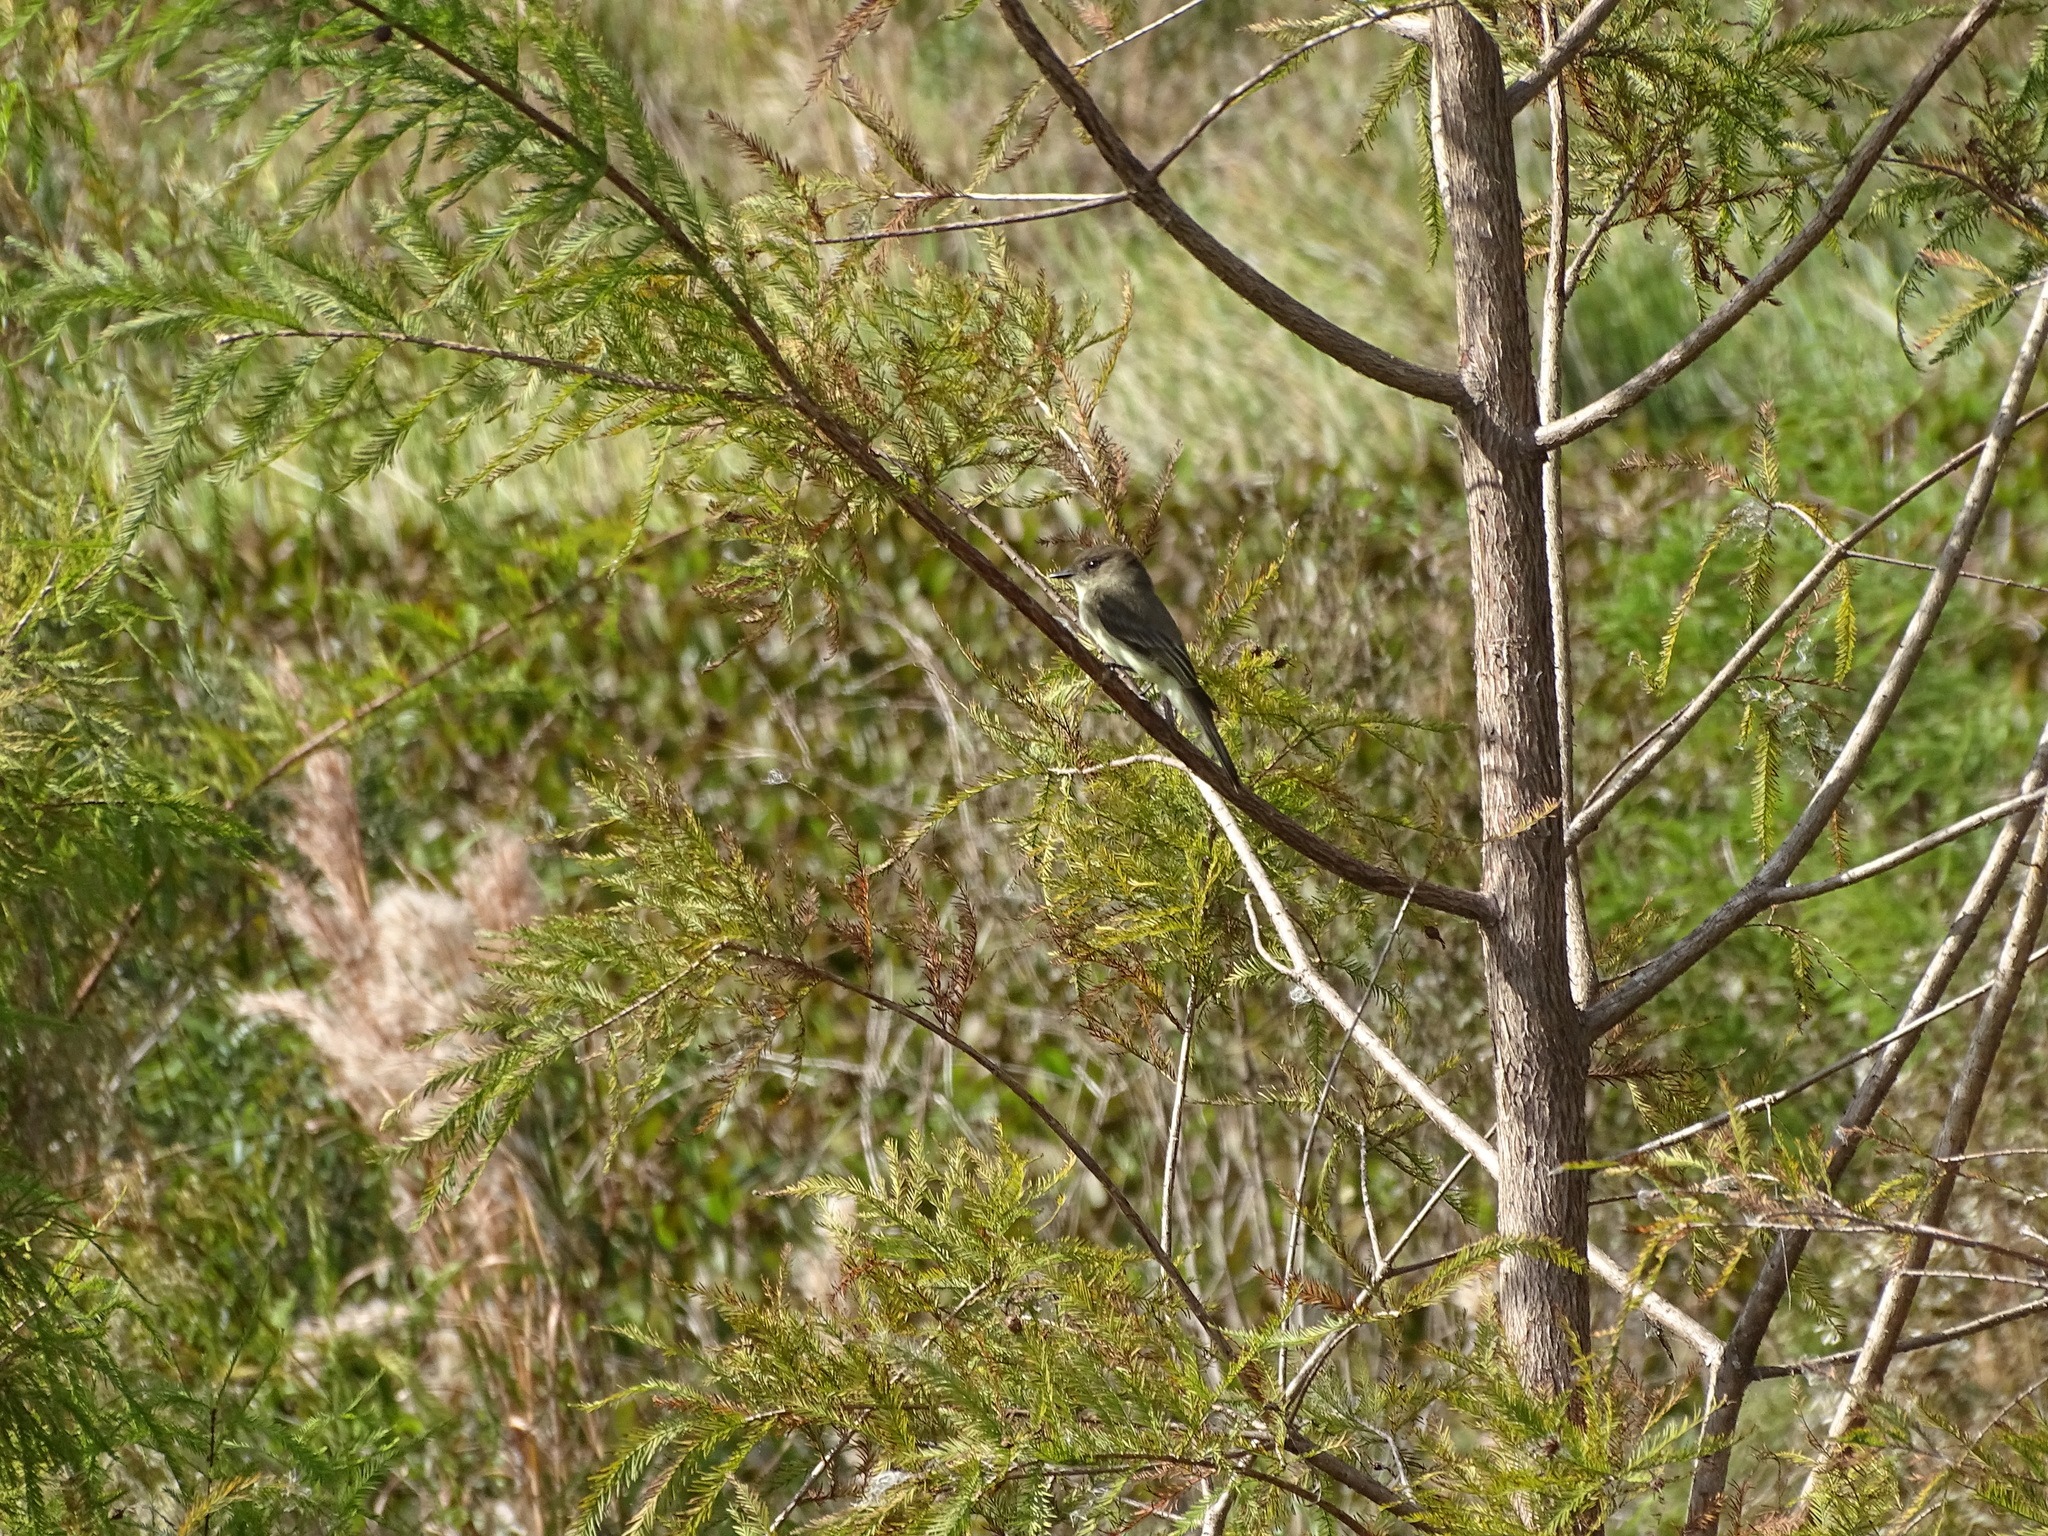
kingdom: Animalia
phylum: Chordata
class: Aves
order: Passeriformes
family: Tyrannidae
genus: Sayornis
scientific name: Sayornis phoebe
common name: Eastern phoebe
